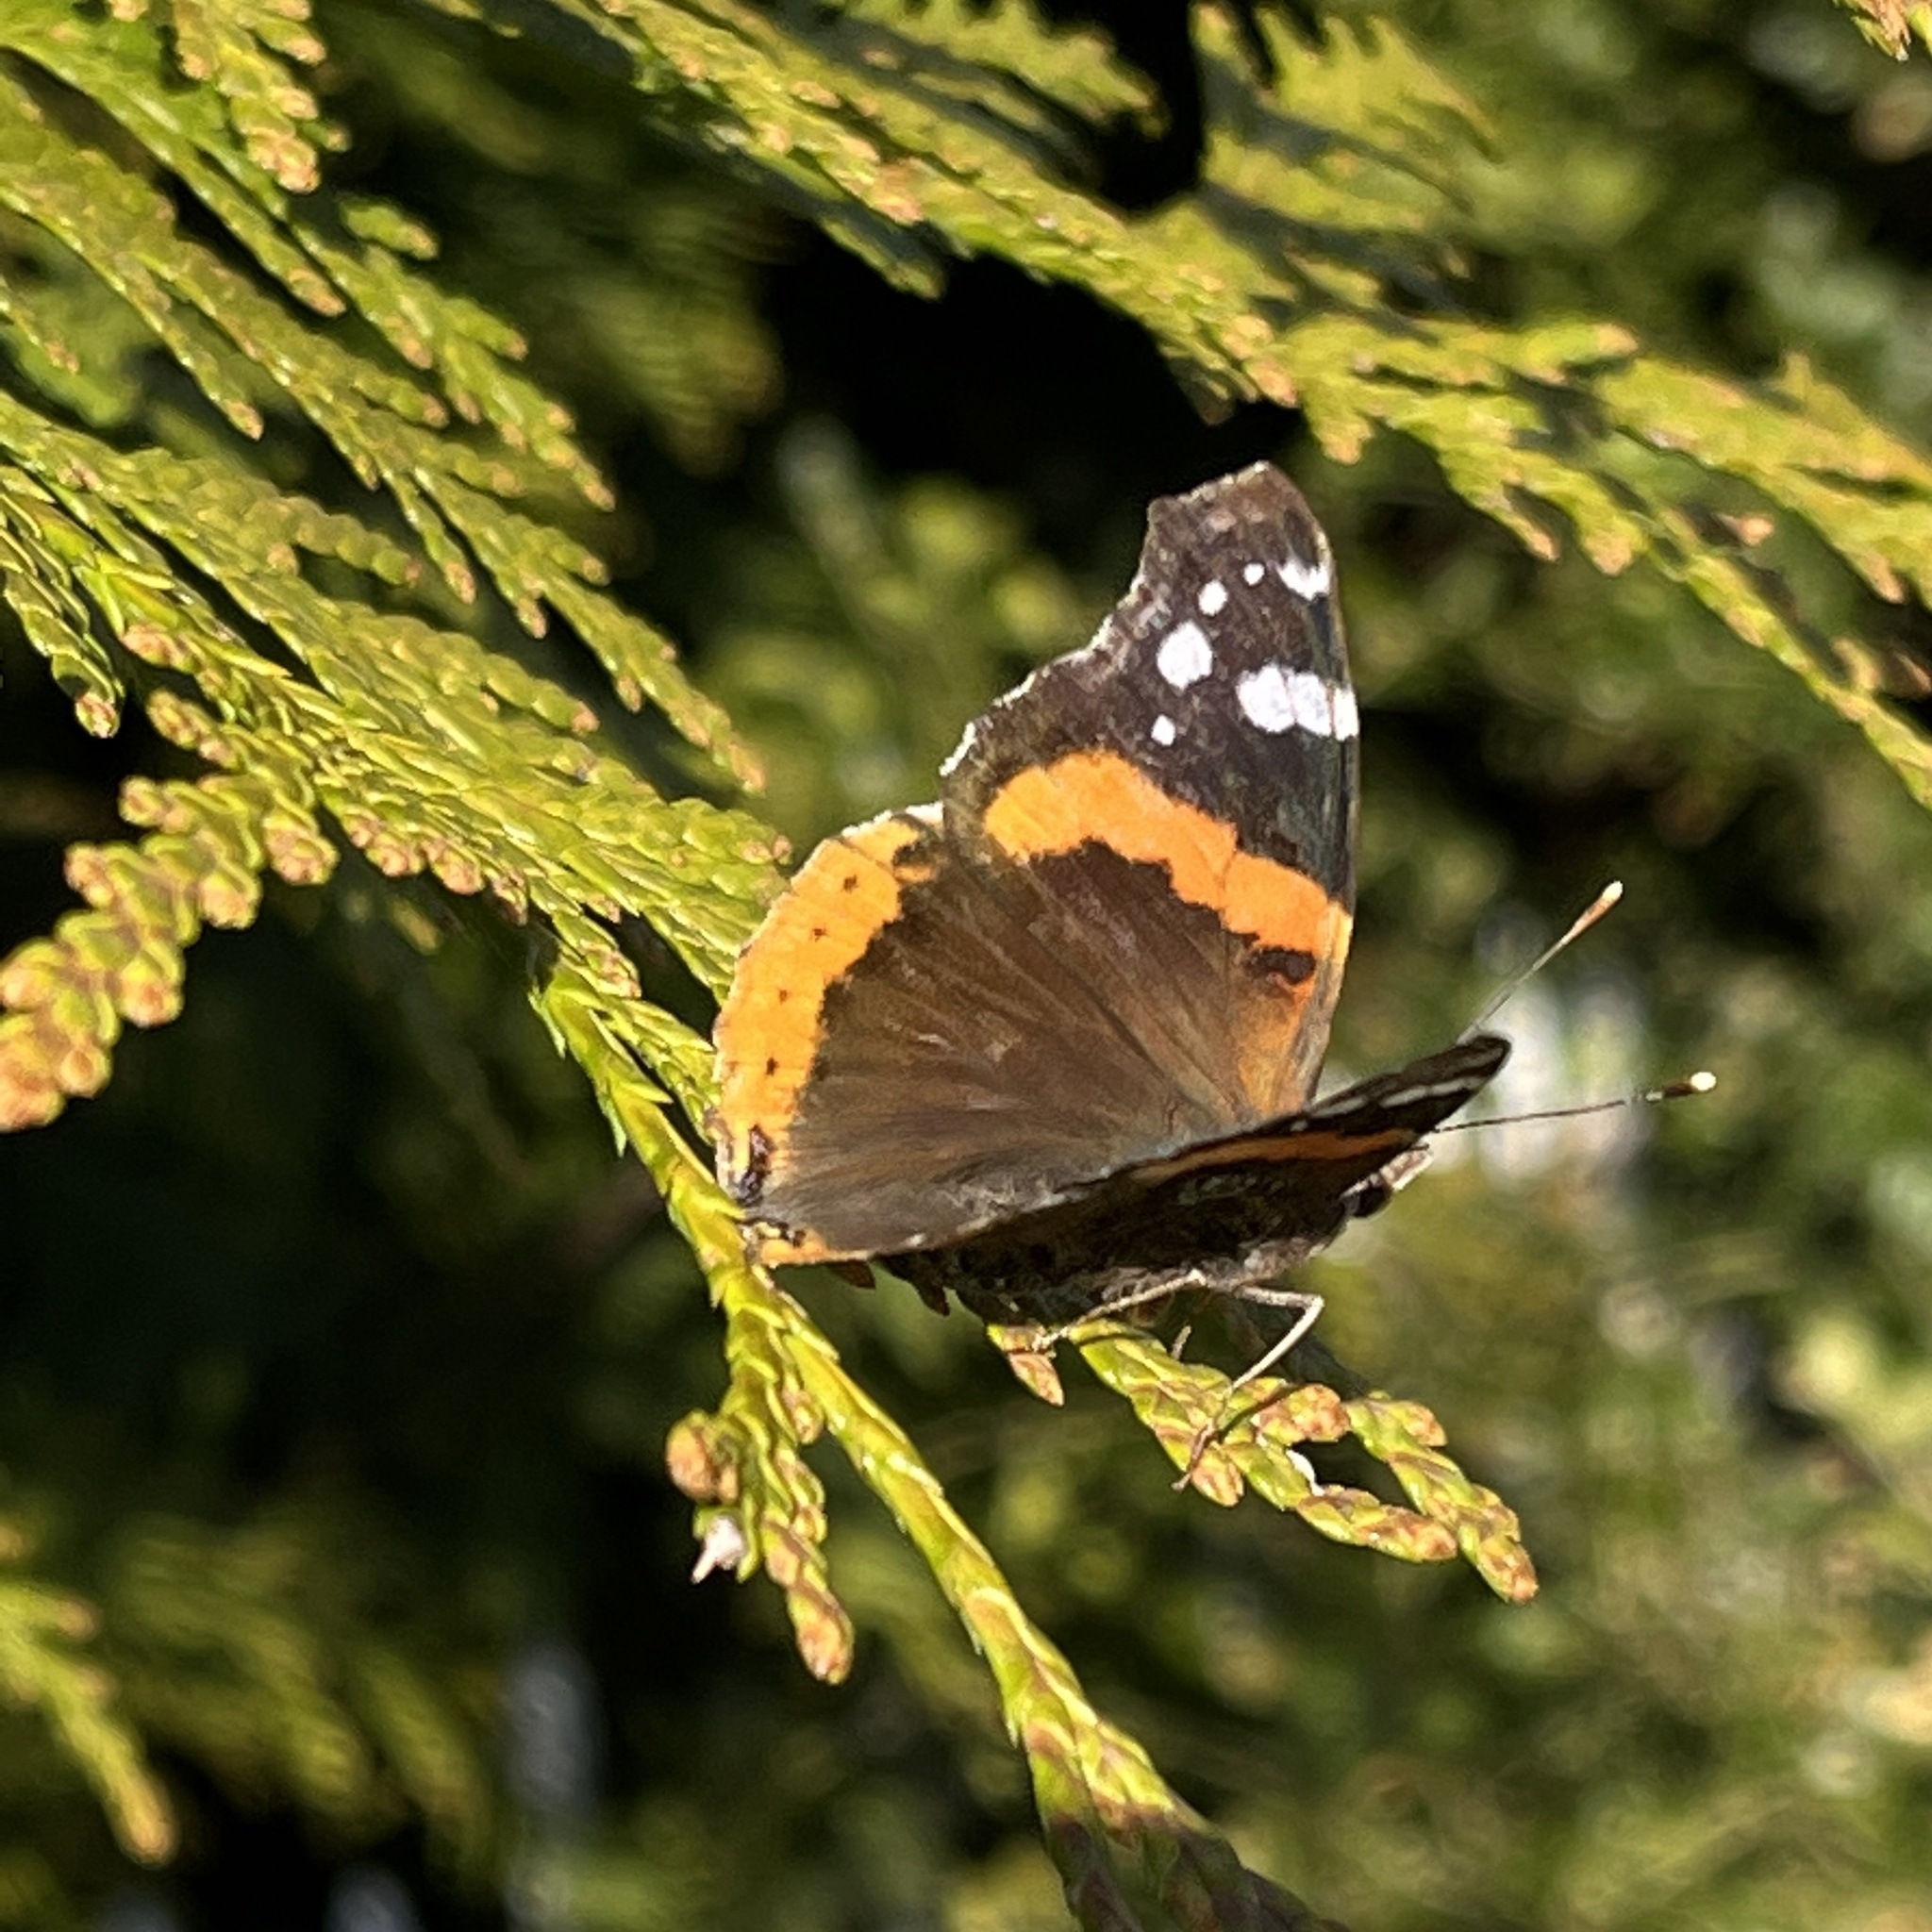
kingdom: Animalia
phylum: Arthropoda
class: Insecta
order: Lepidoptera
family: Nymphalidae
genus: Vanessa
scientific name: Vanessa atalanta
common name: Red admiral
